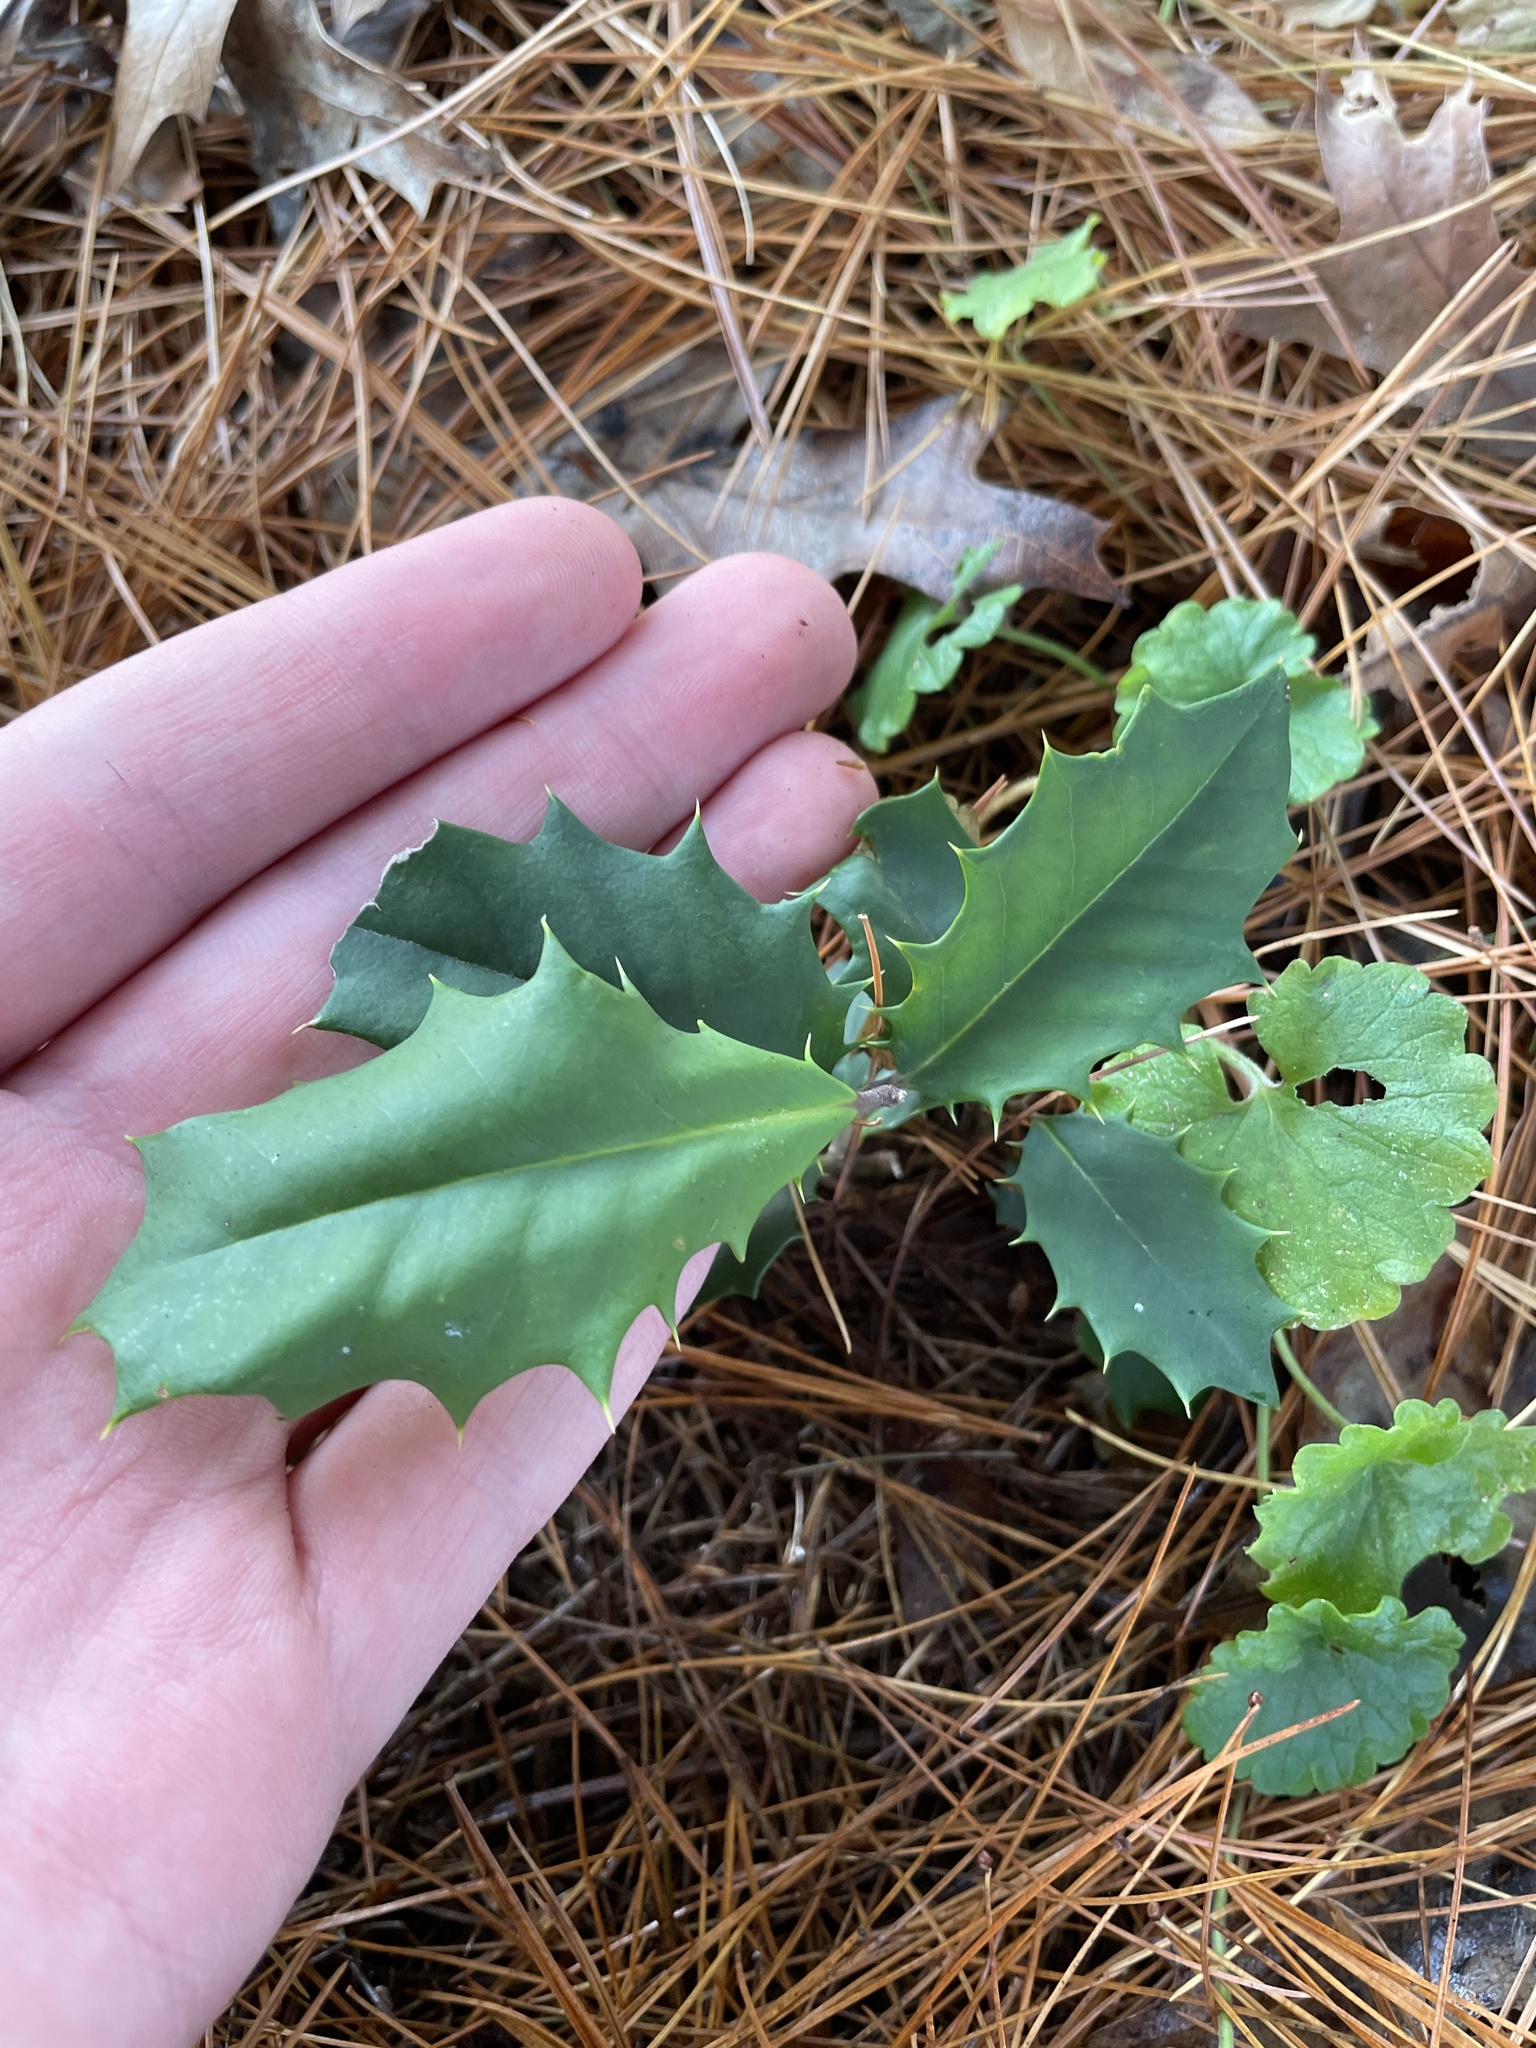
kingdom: Plantae
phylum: Tracheophyta
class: Magnoliopsida
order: Aquifoliales
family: Aquifoliaceae
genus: Ilex
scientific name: Ilex opaca
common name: American holly
